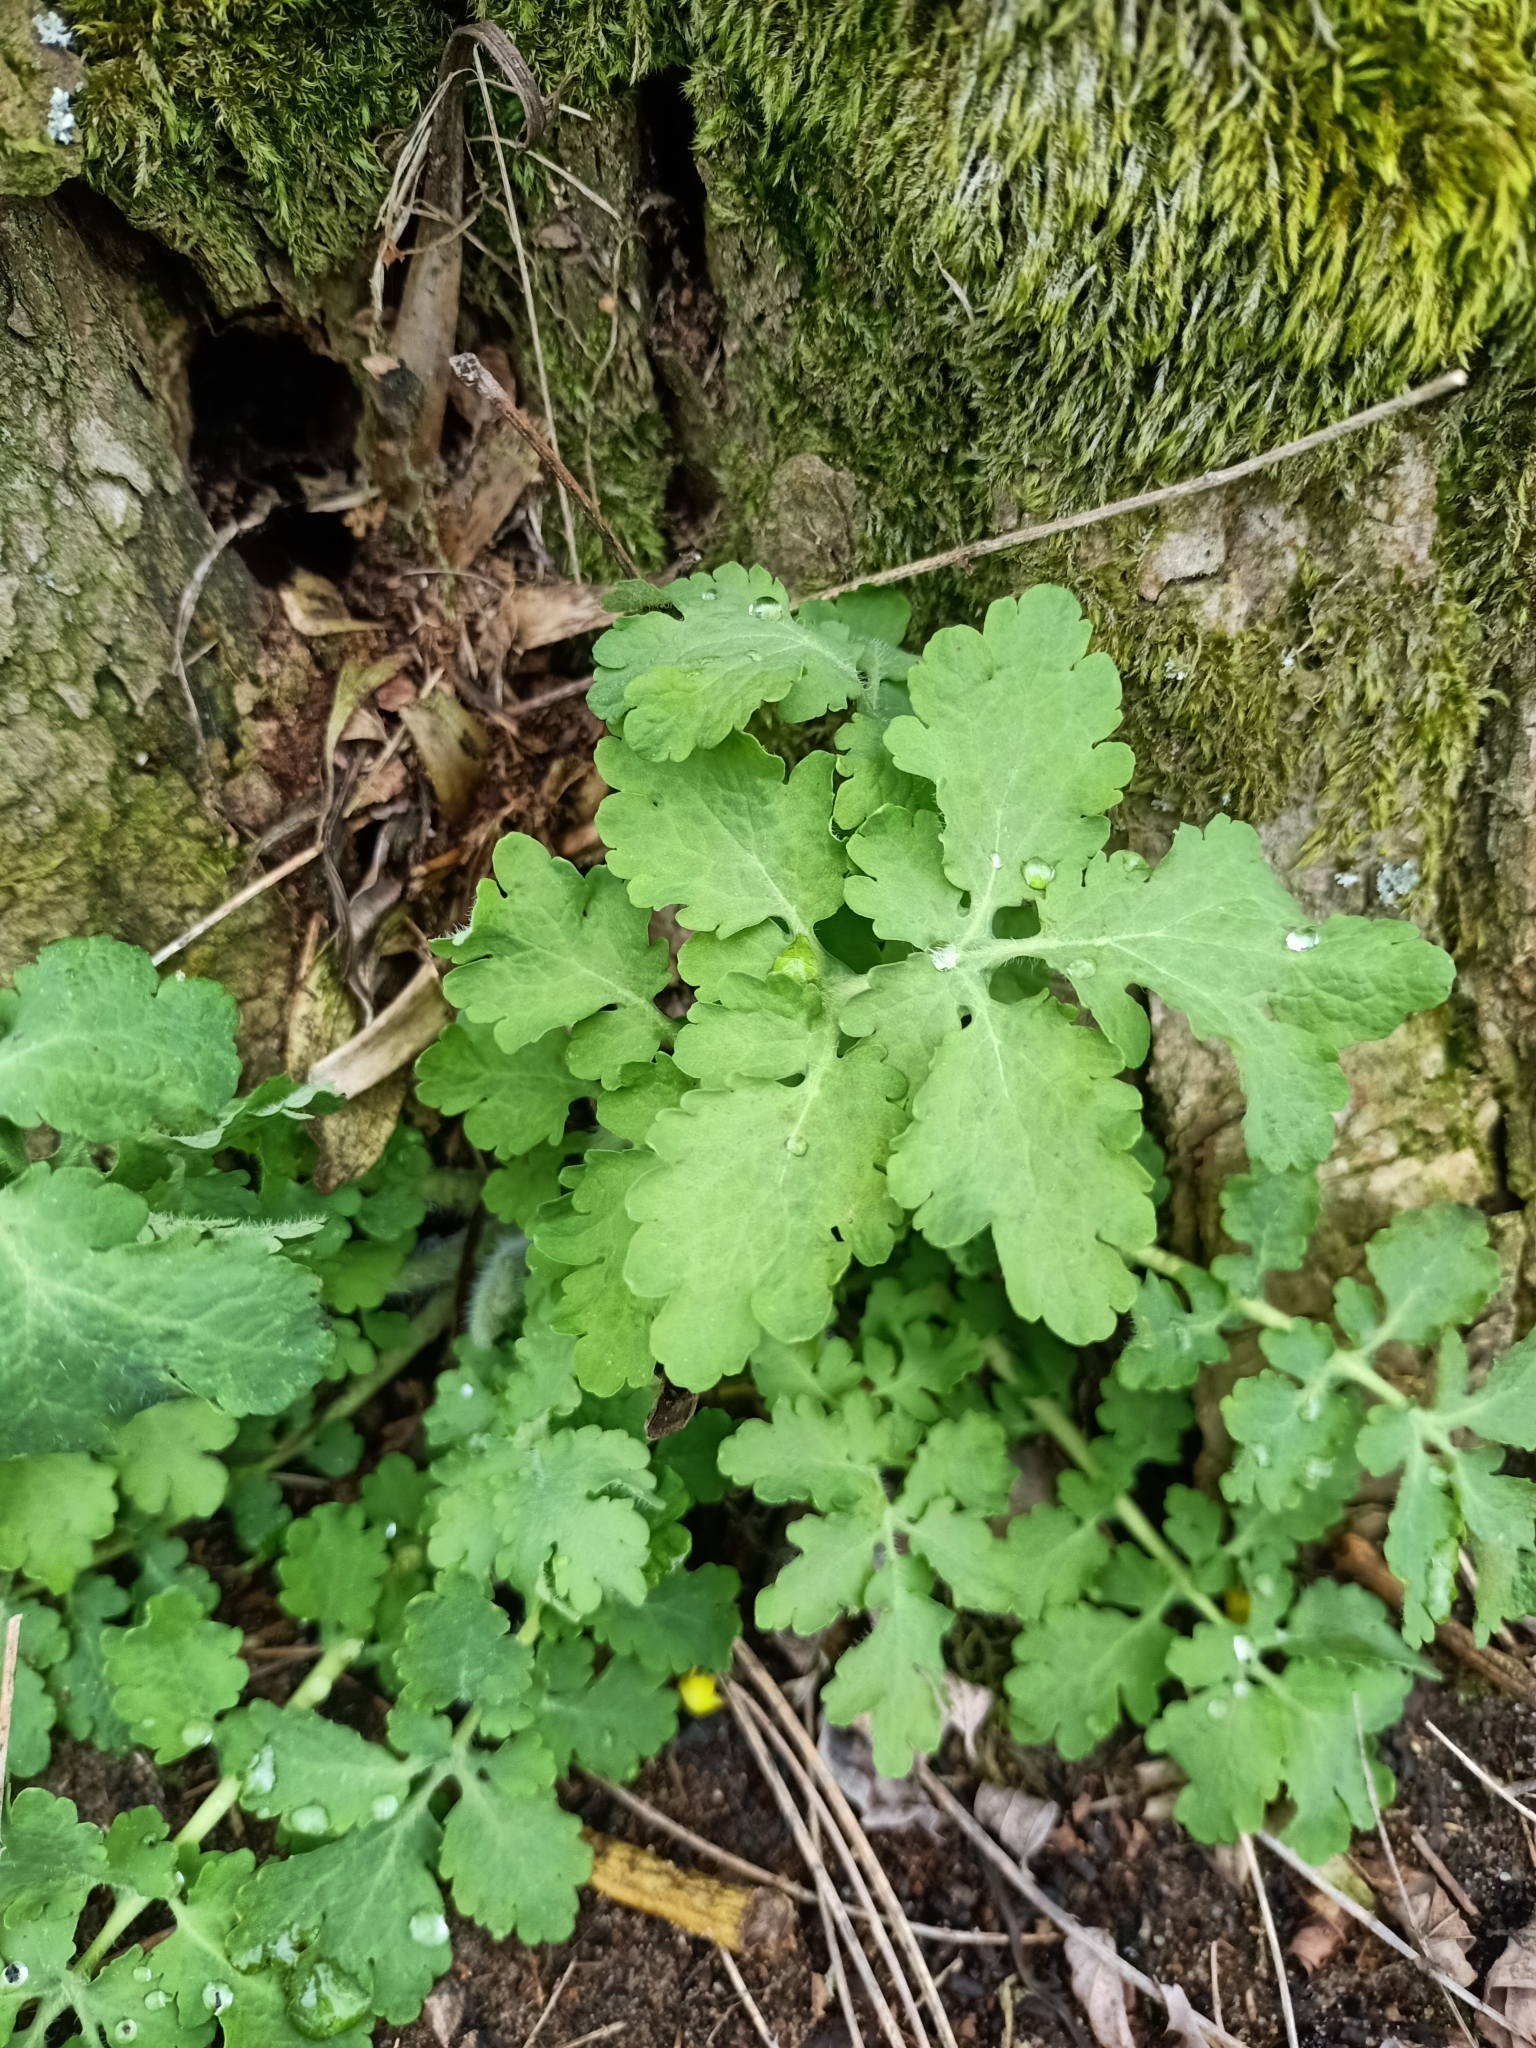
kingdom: Plantae
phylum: Tracheophyta
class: Magnoliopsida
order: Ranunculales
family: Papaveraceae
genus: Chelidonium
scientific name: Chelidonium majus
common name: Greater celandine
